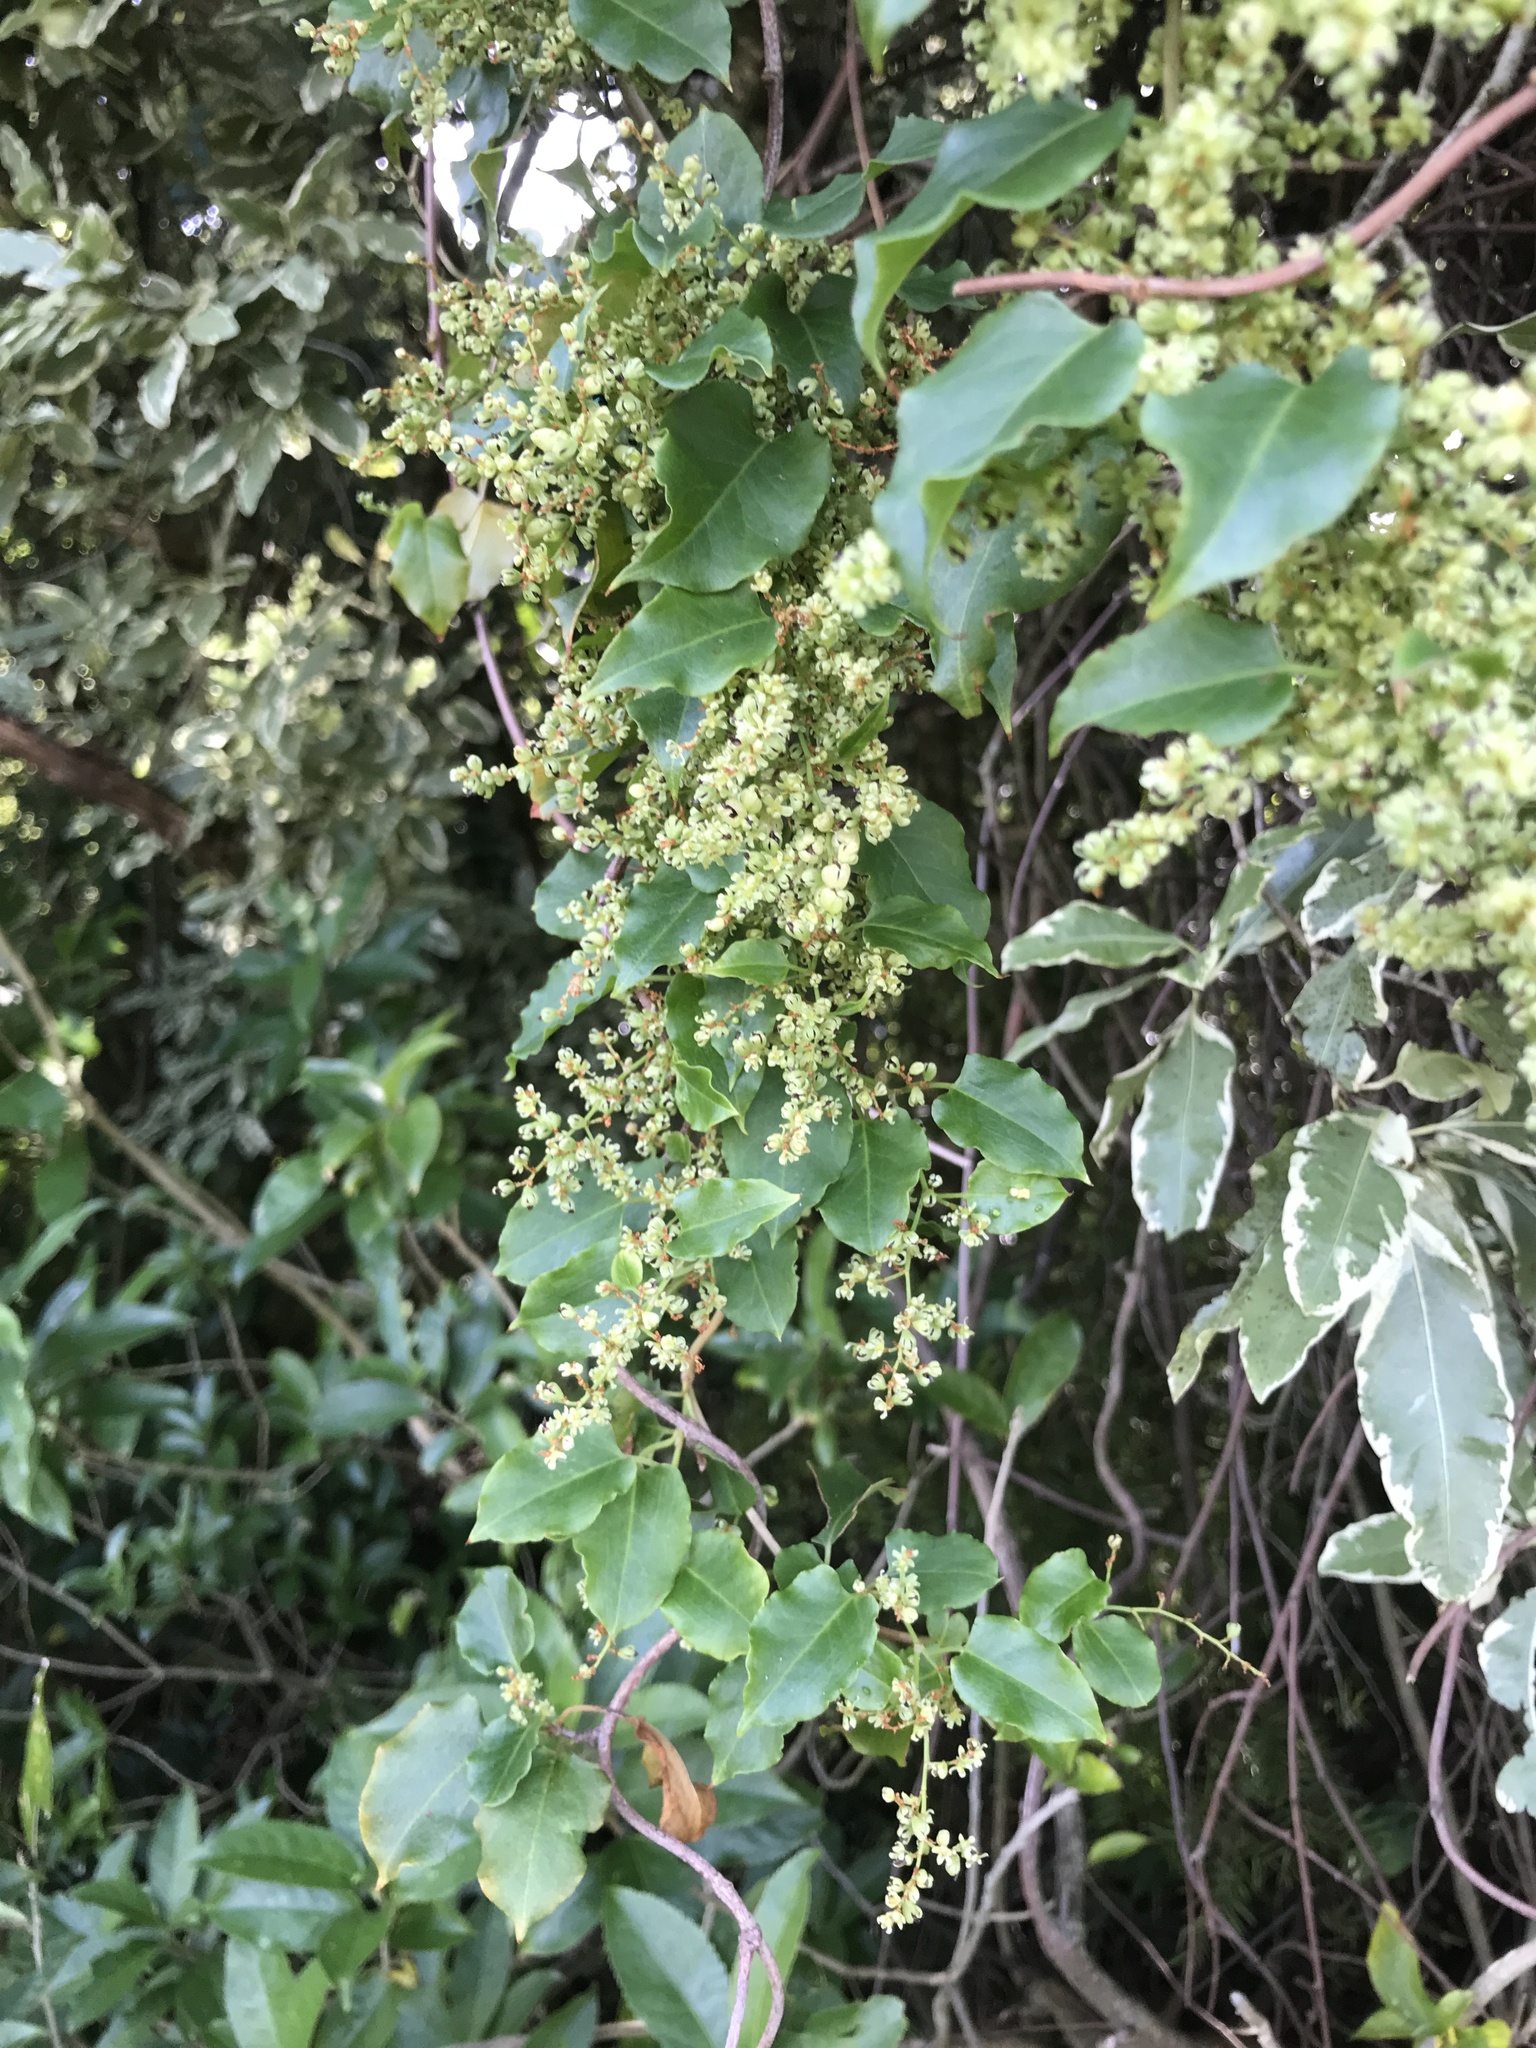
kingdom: Plantae
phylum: Tracheophyta
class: Magnoliopsida
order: Caryophyllales
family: Polygonaceae
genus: Muehlenbeckia
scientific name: Muehlenbeckia australis
